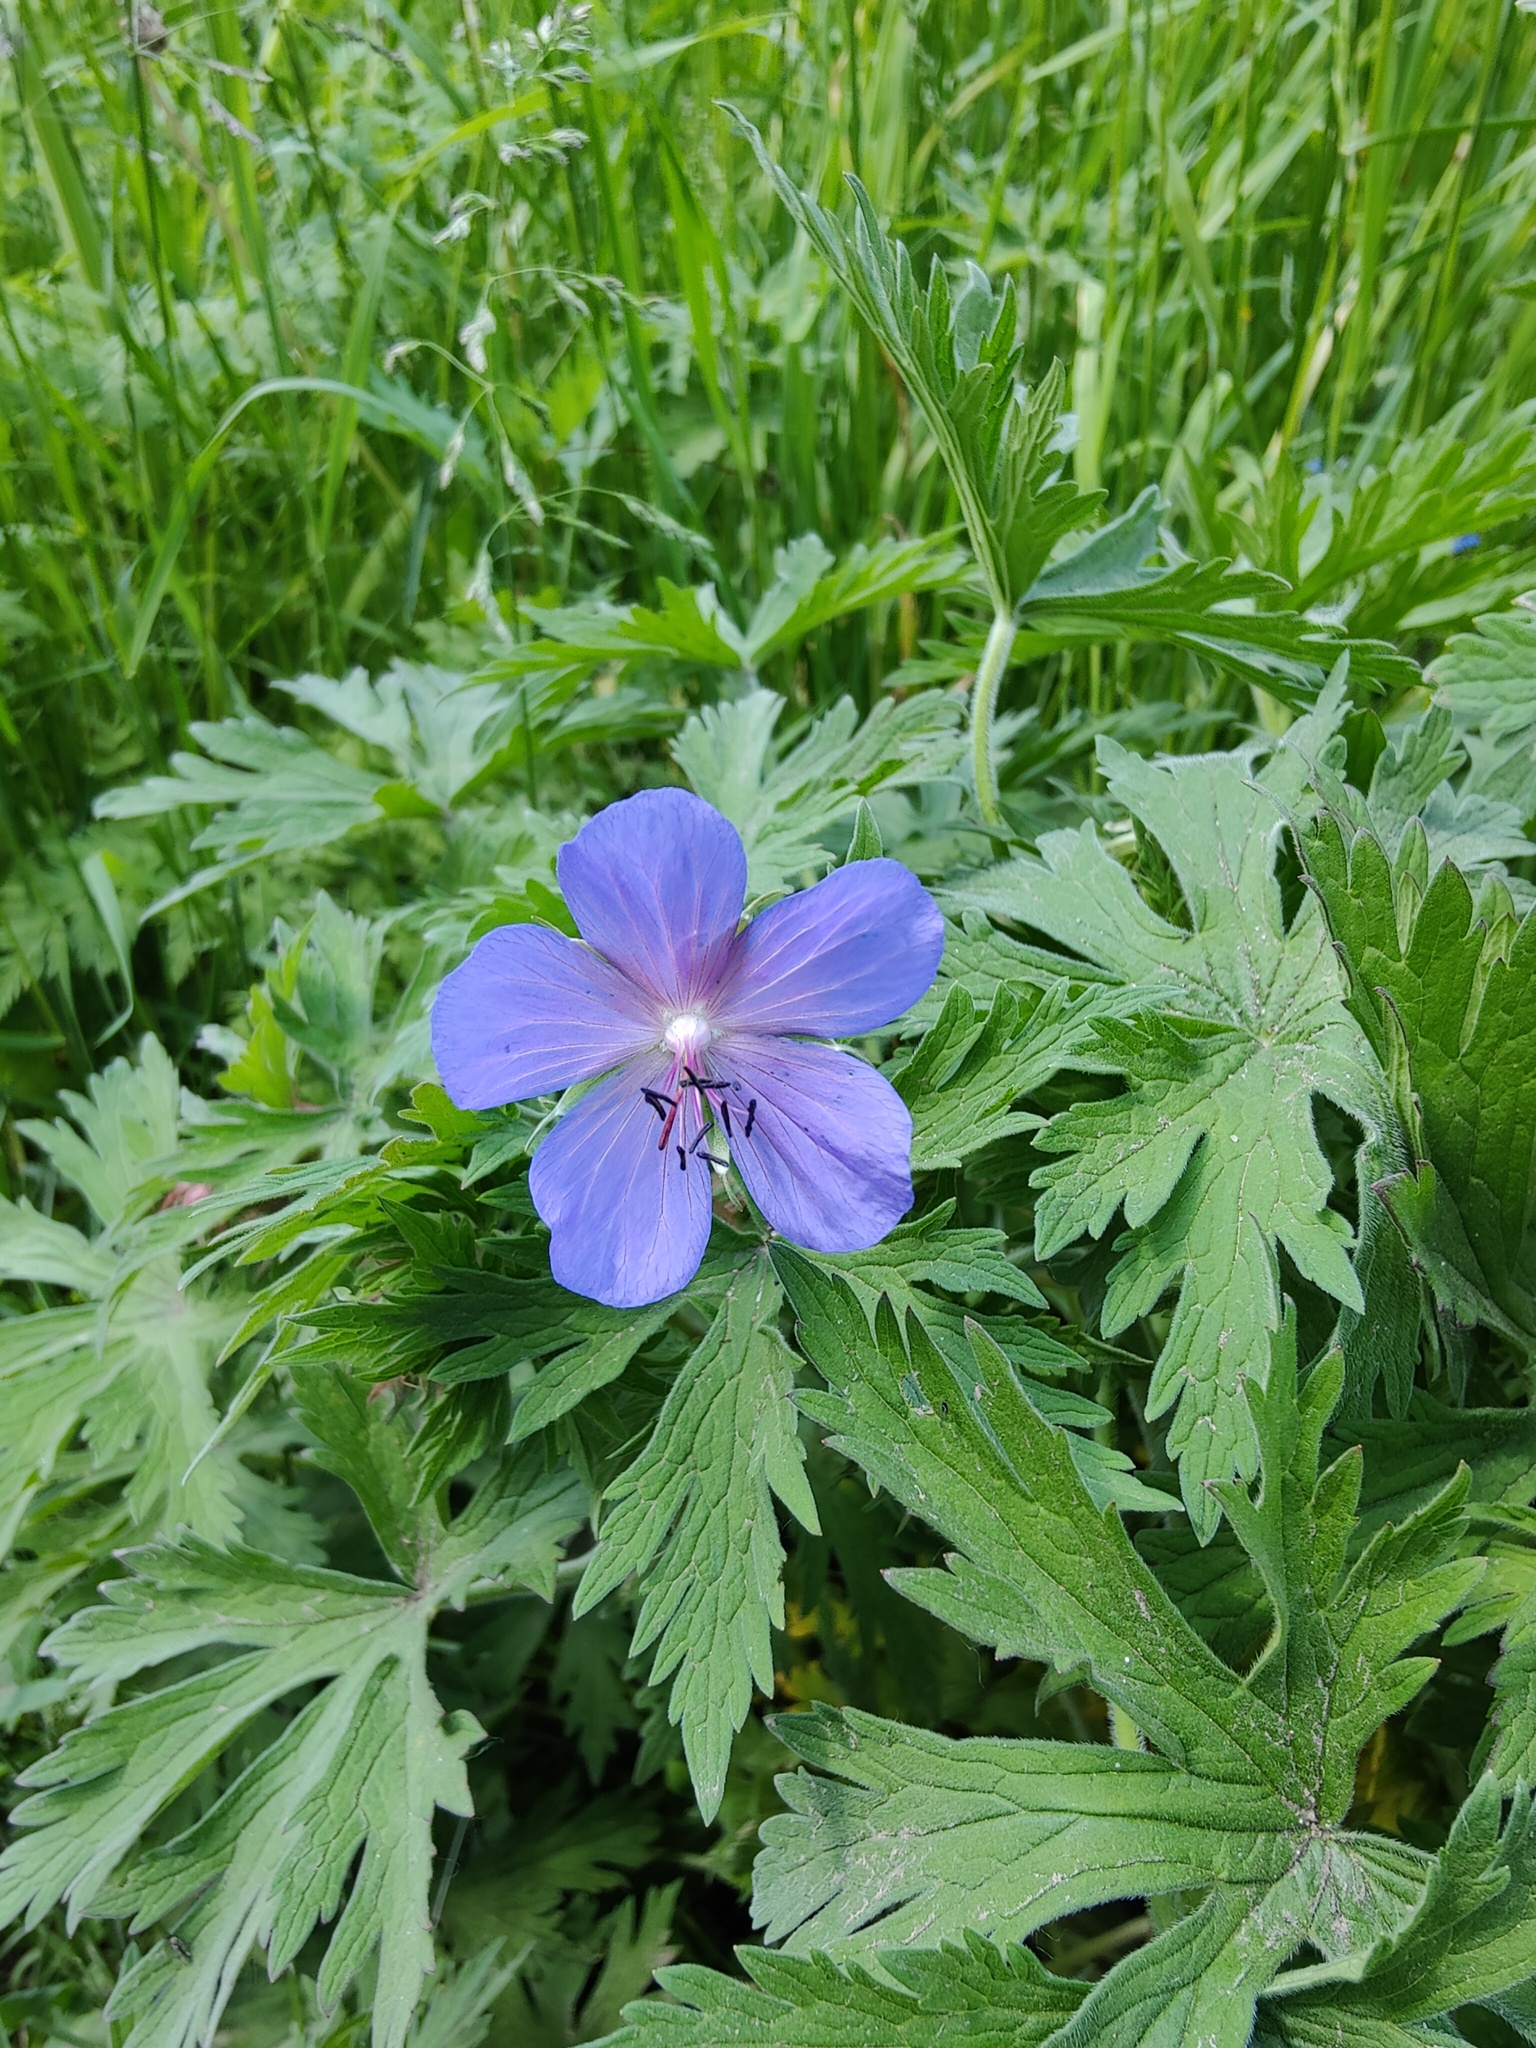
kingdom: Plantae
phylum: Tracheophyta
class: Magnoliopsida
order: Geraniales
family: Geraniaceae
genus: Geranium
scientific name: Geranium pratense
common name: Meadow crane's-bill
